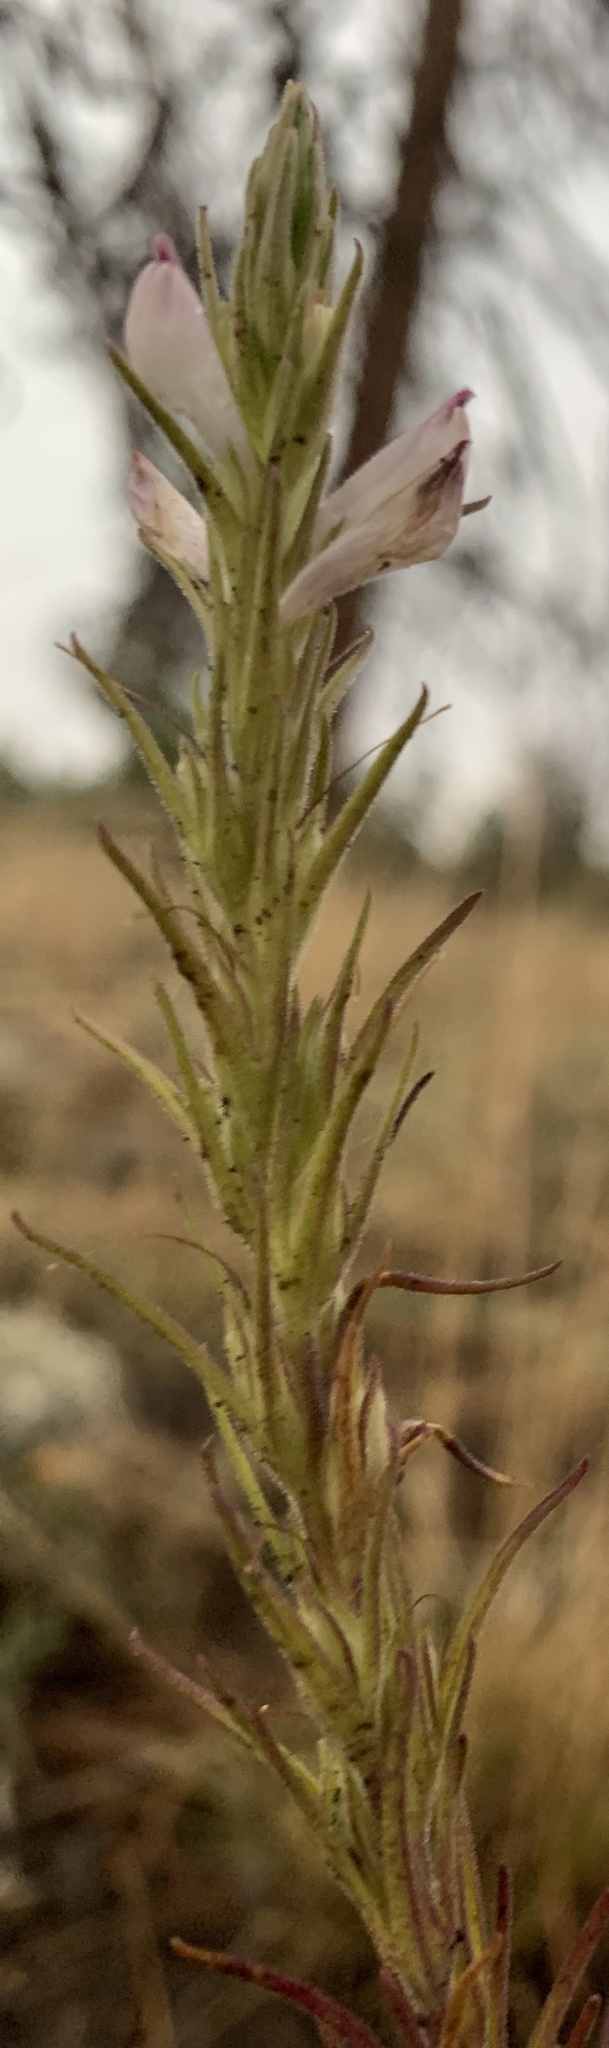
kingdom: Plantae
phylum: Tracheophyta
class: Magnoliopsida
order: Lamiales
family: Orobanchaceae
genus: Orthocarpus
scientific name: Orthocarpus purpureoalbus
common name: Violet owl-clover
